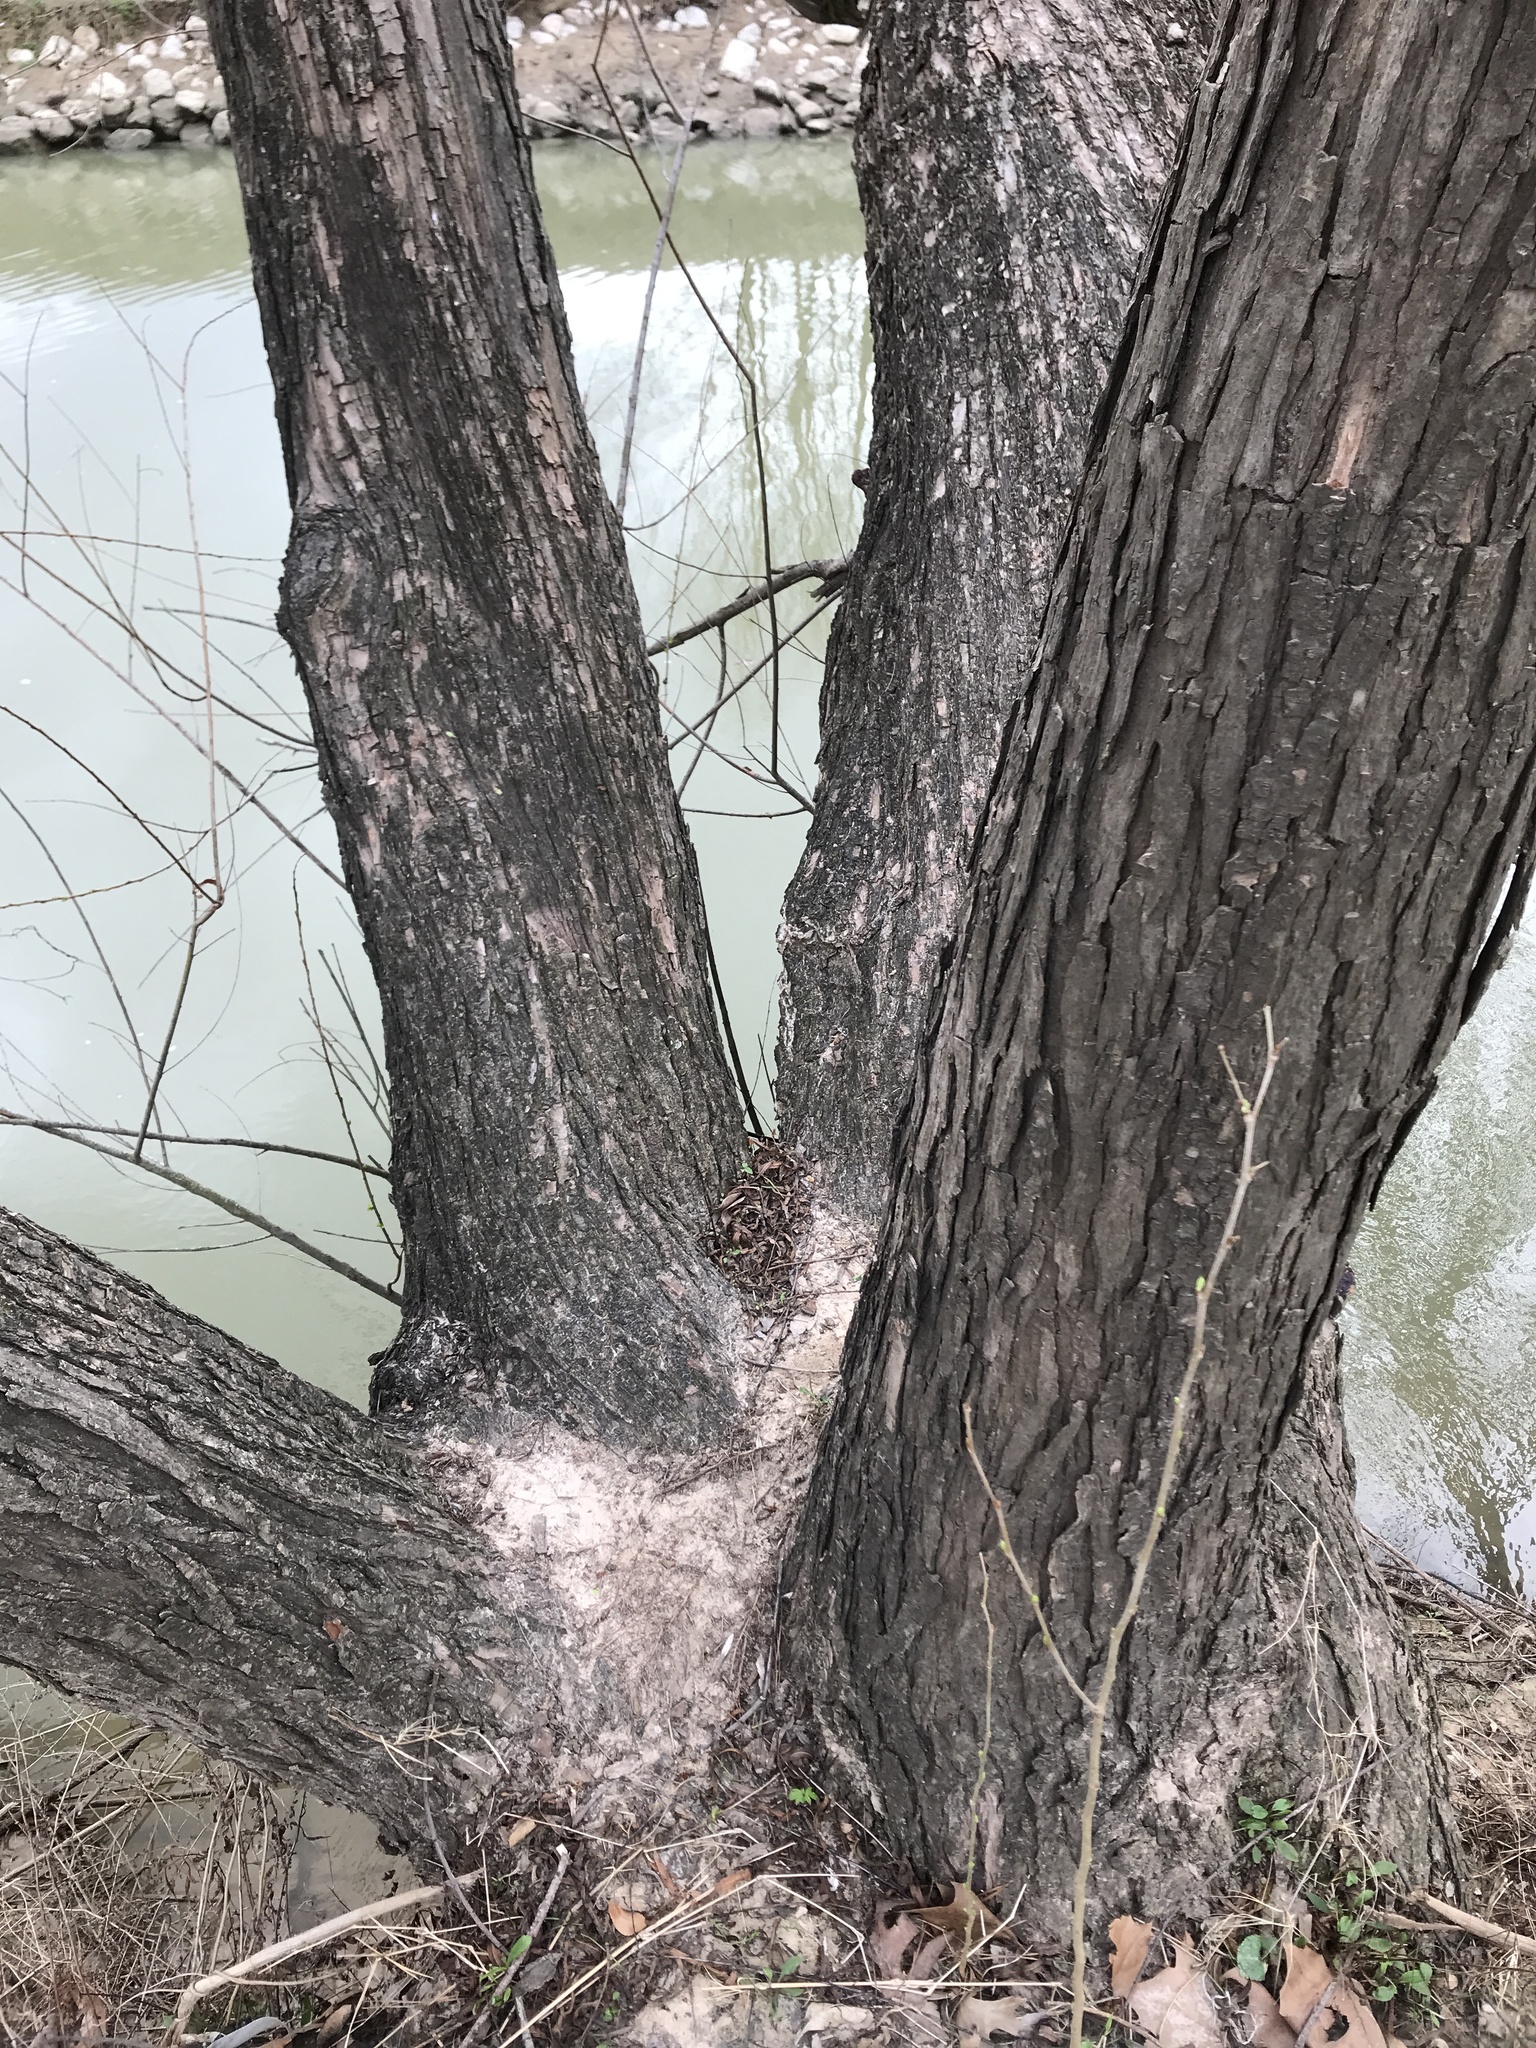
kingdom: Plantae
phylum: Tracheophyta
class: Magnoliopsida
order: Malpighiales
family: Salicaceae
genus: Salix
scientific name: Salix nigra
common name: Black willow
